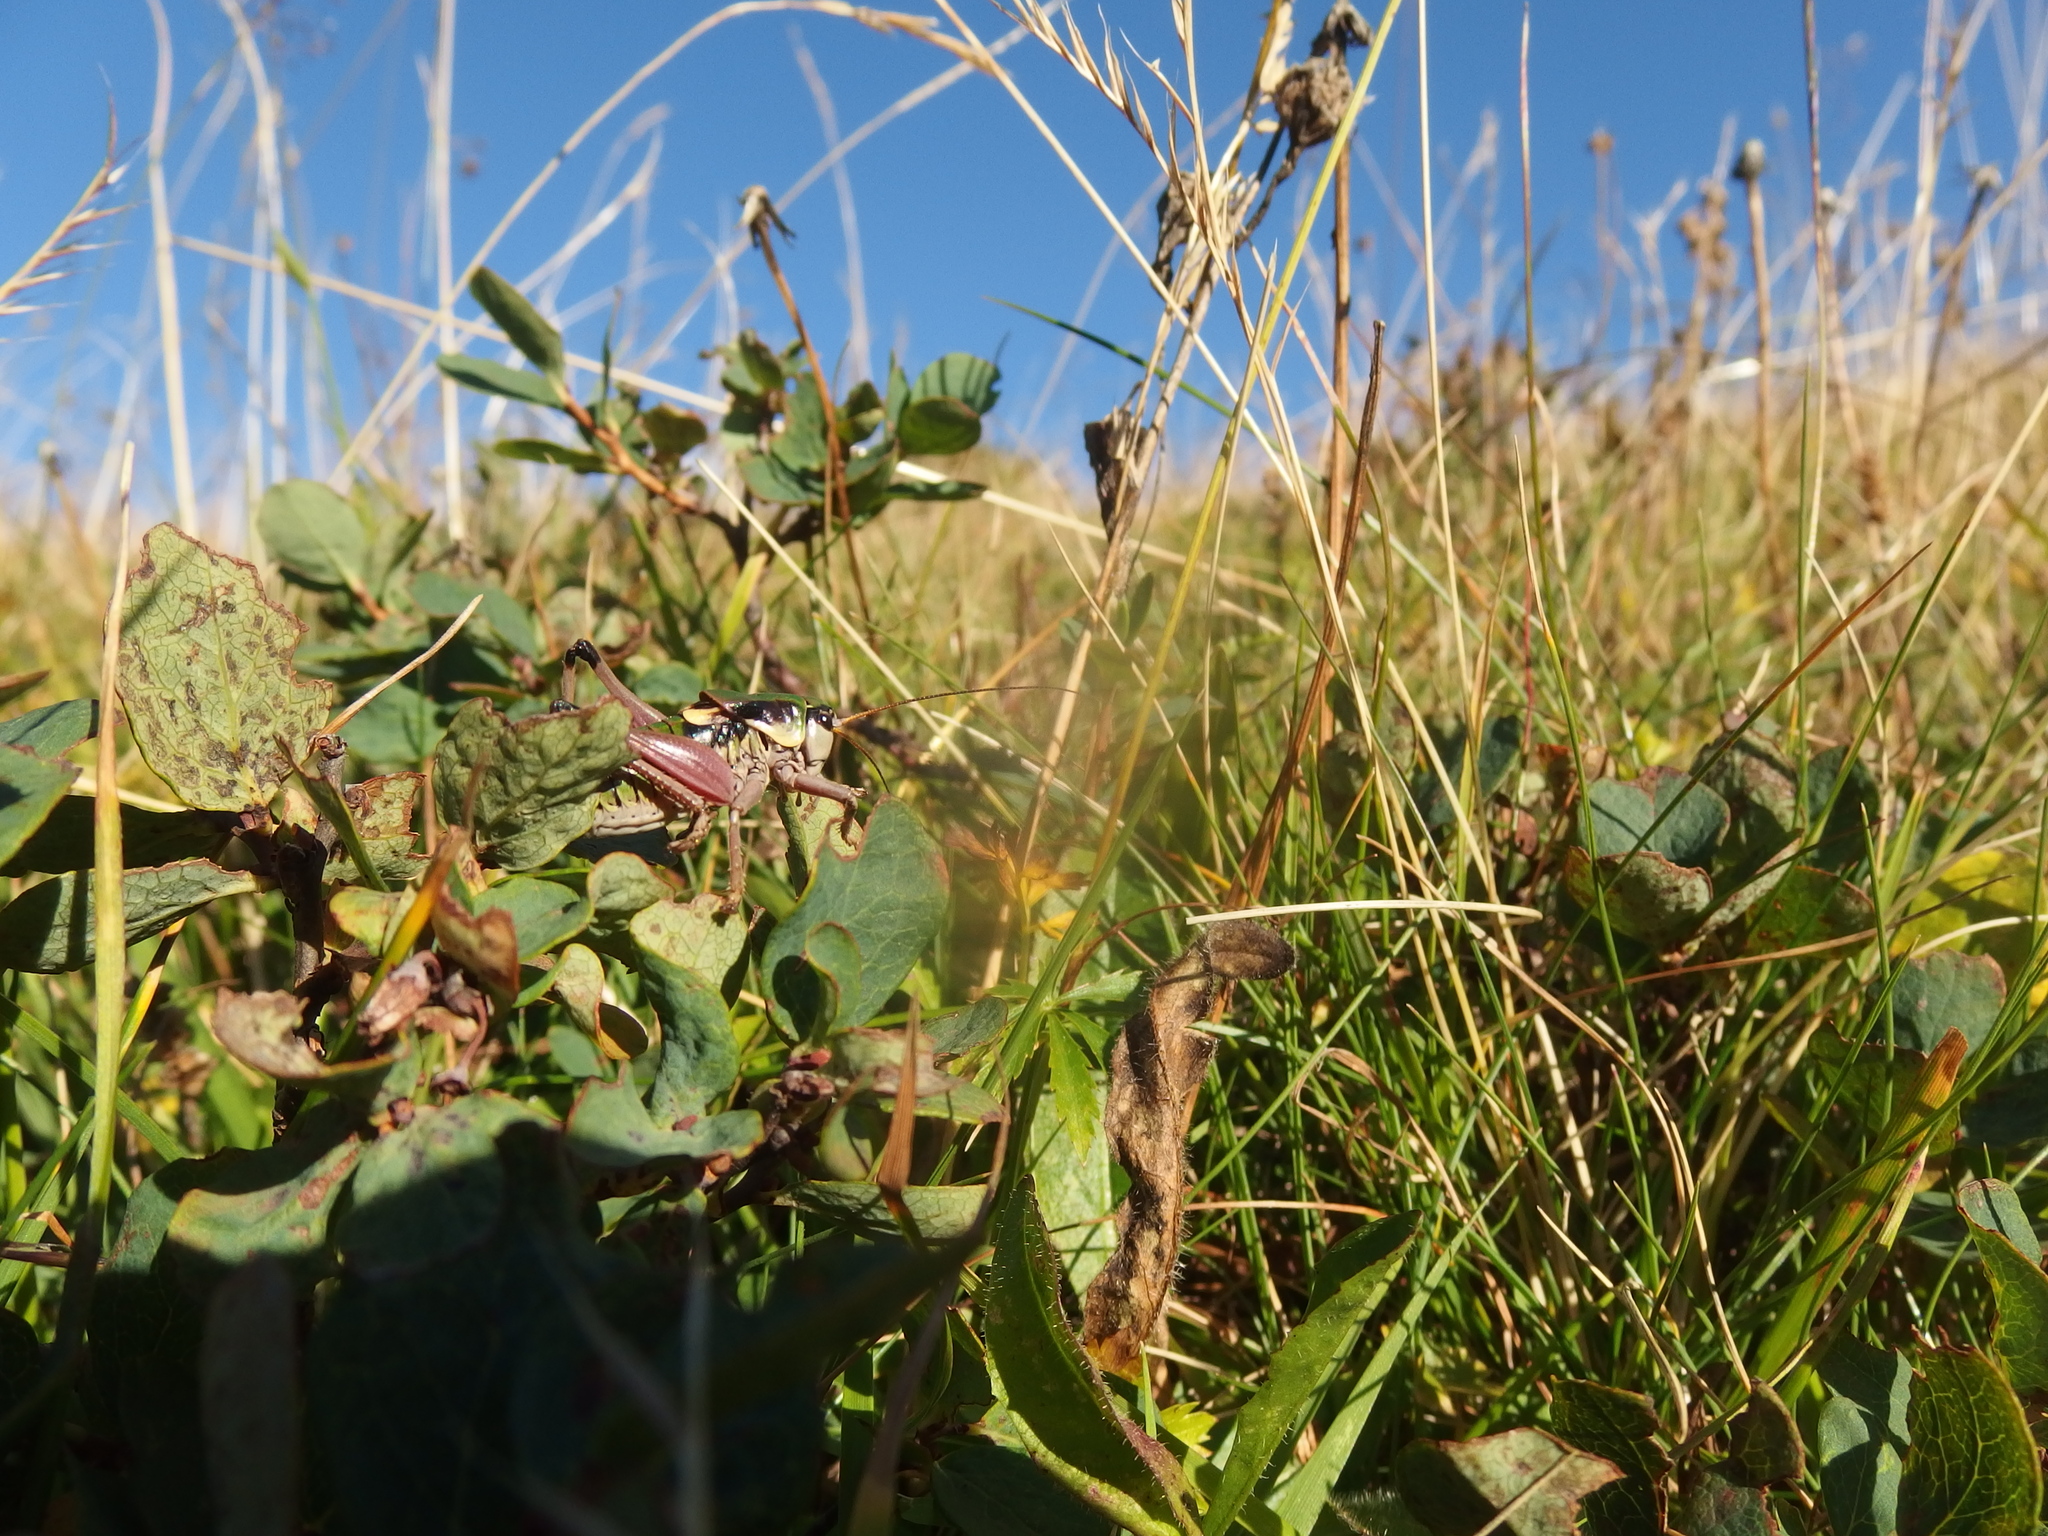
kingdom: Animalia
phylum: Arthropoda
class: Insecta
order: Orthoptera
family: Tettigoniidae
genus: Anonconotus
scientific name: Anonconotus alpinus
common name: Small alpine bush-cricket
